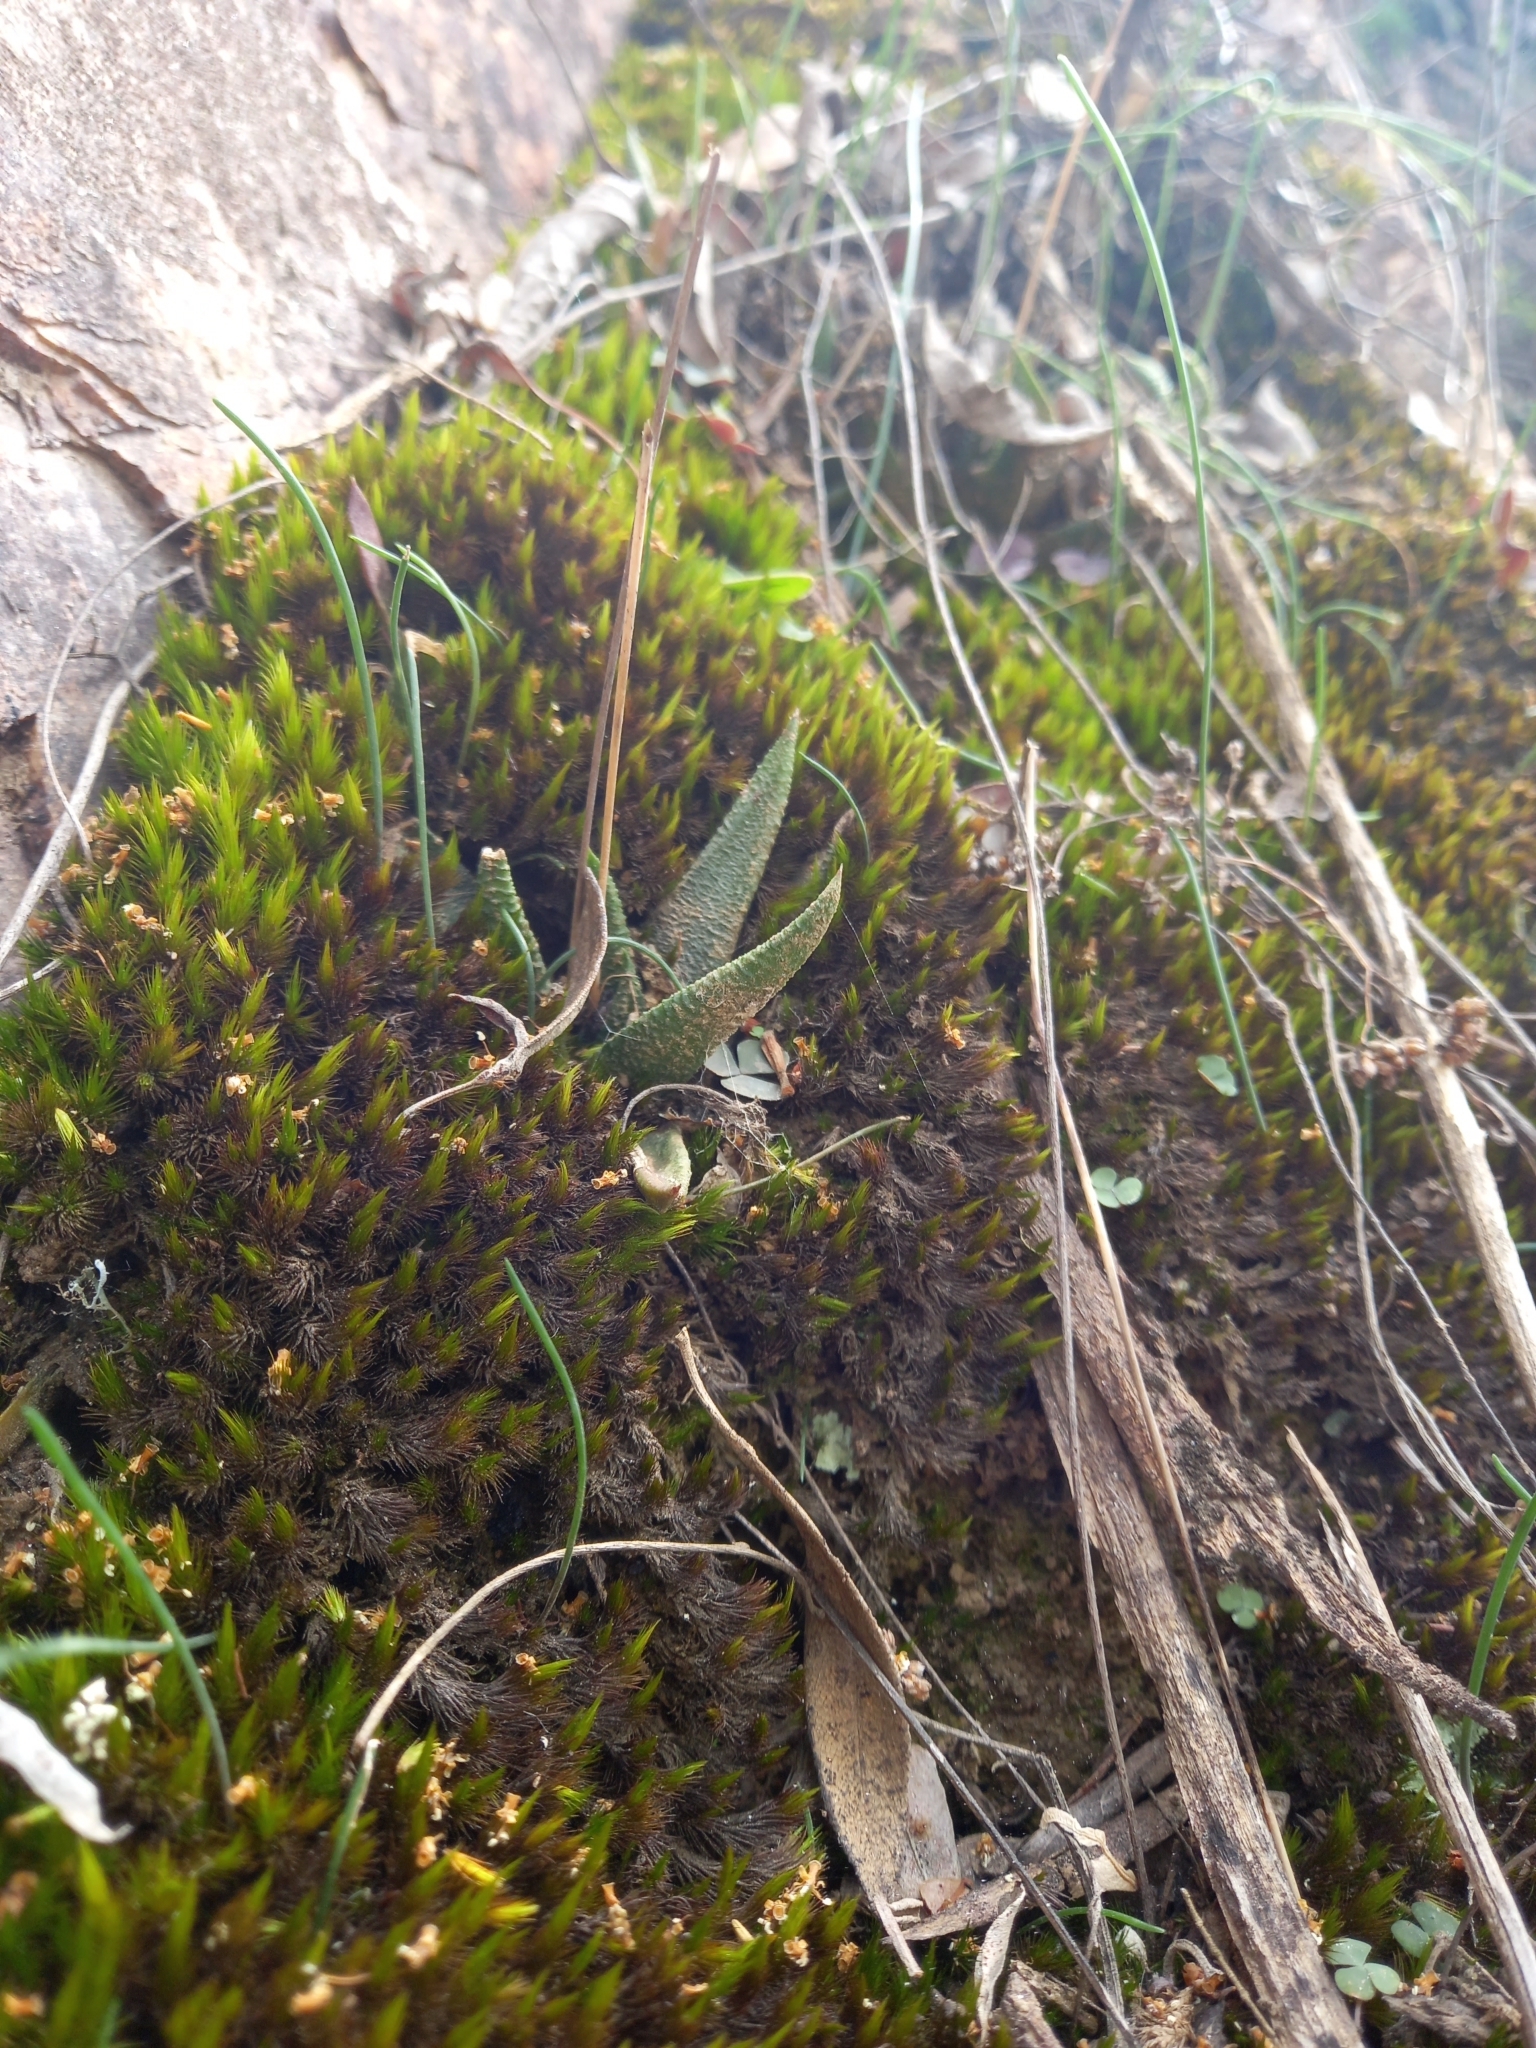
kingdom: Plantae
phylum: Tracheophyta
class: Liliopsida
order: Asparagales
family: Asphodelaceae
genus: Haworthiopsis
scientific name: Haworthiopsis scabra
